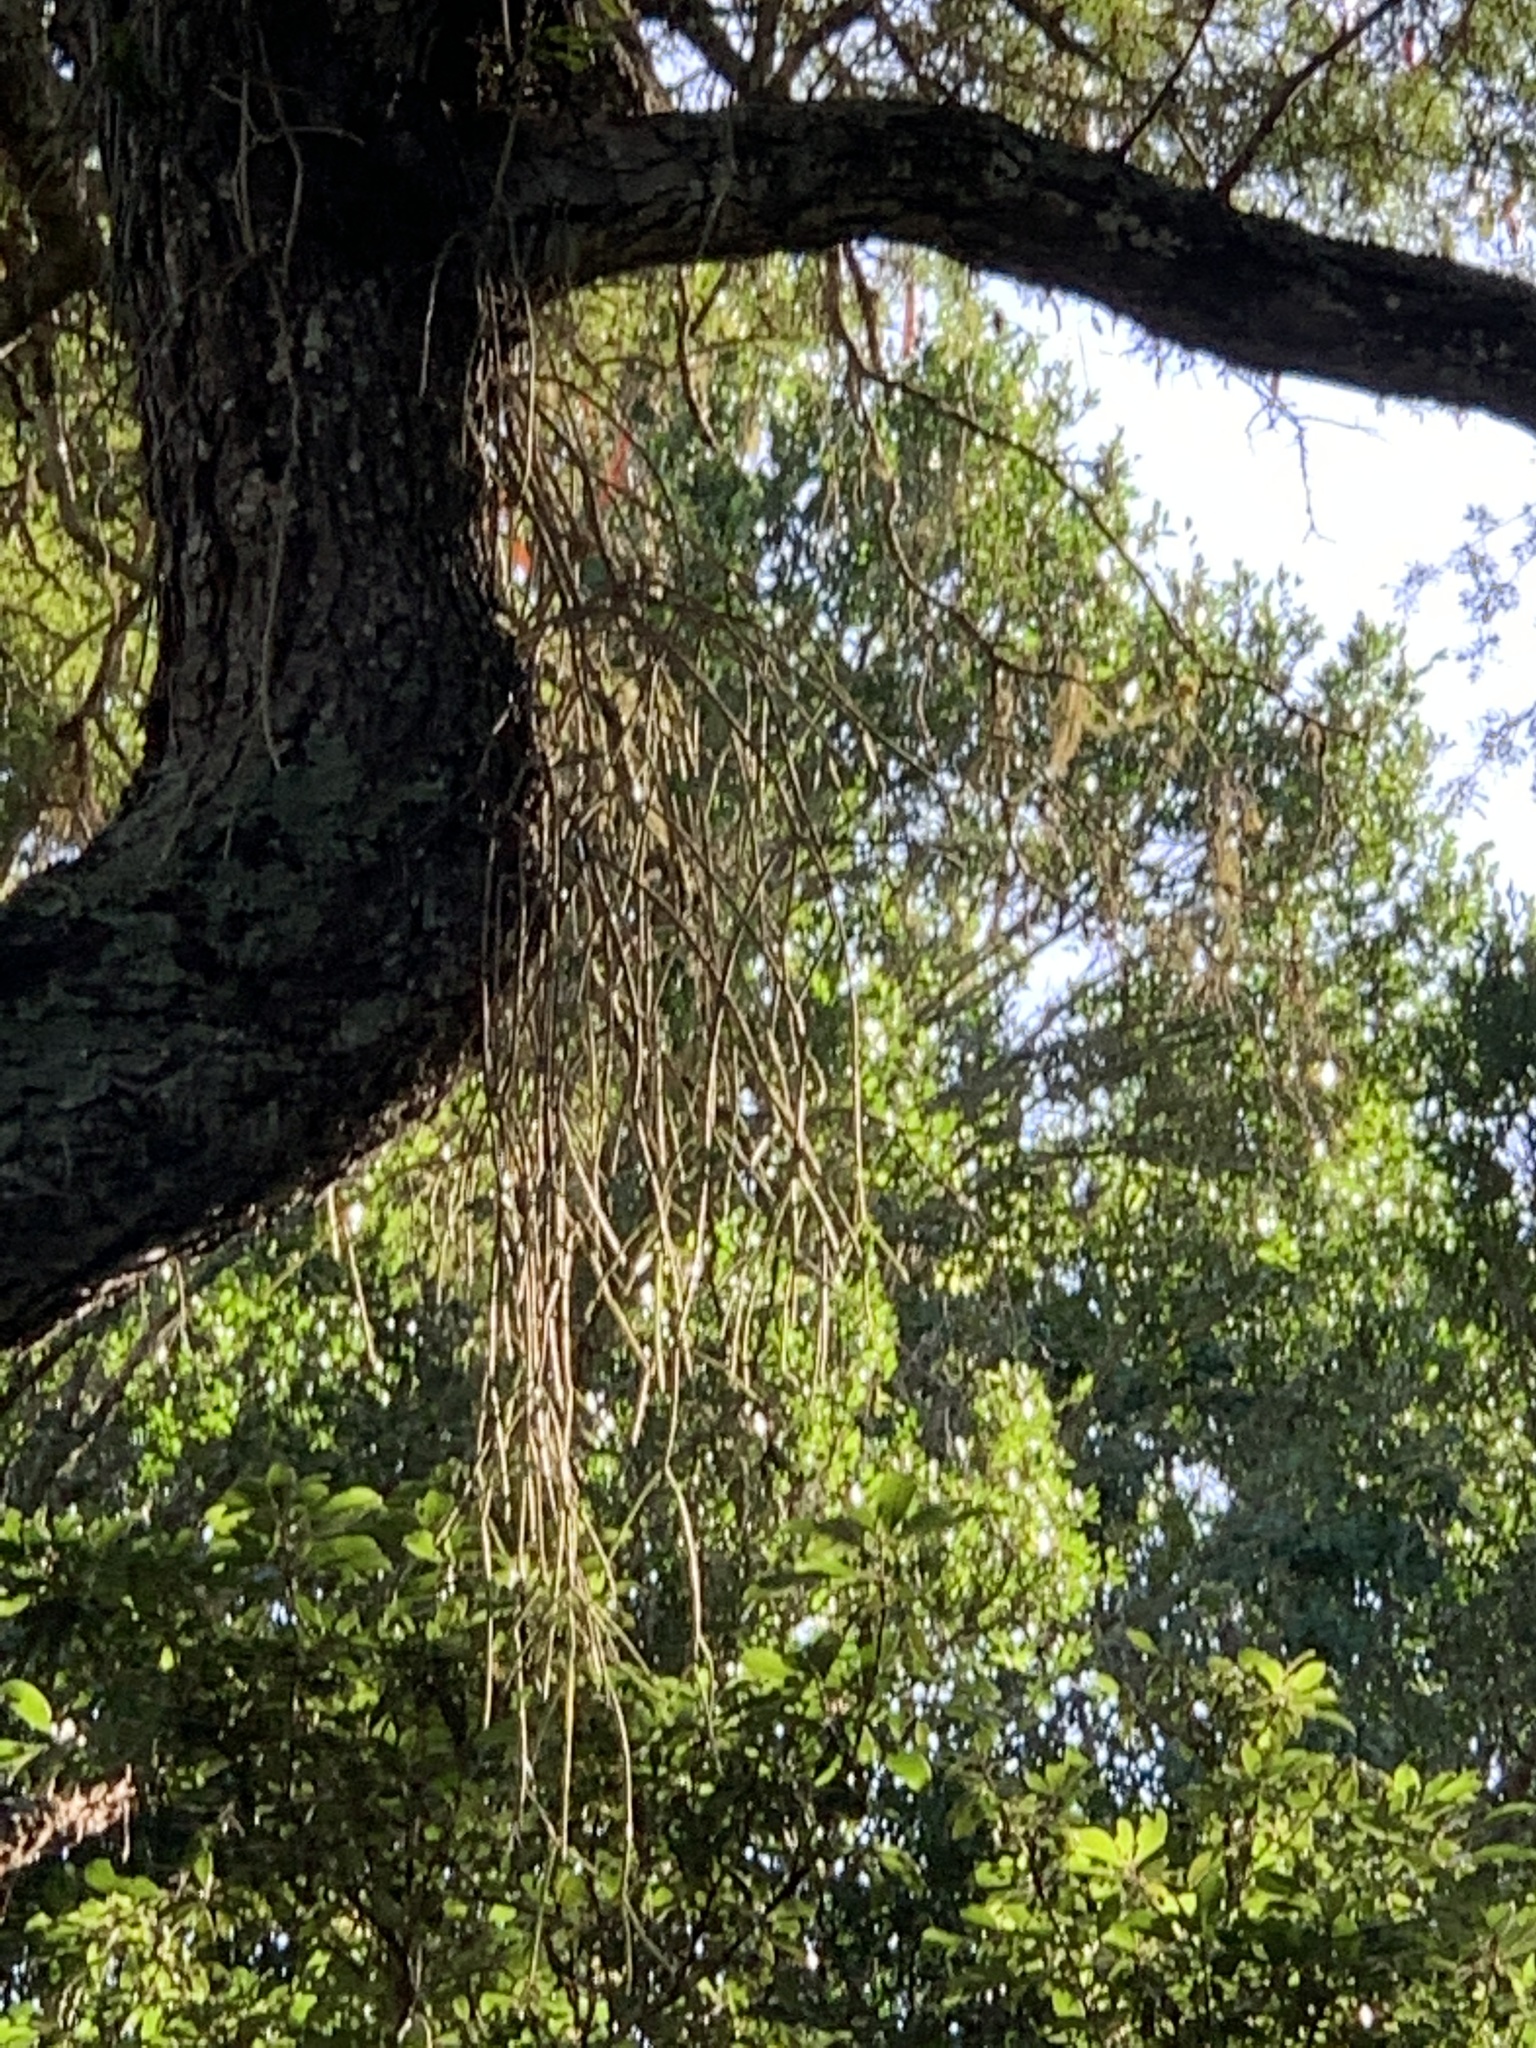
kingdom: Plantae
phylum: Tracheophyta
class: Magnoliopsida
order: Caryophyllales
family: Cactaceae
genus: Rhipsalis
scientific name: Rhipsalis baccifera
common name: Mistletoe cactus
